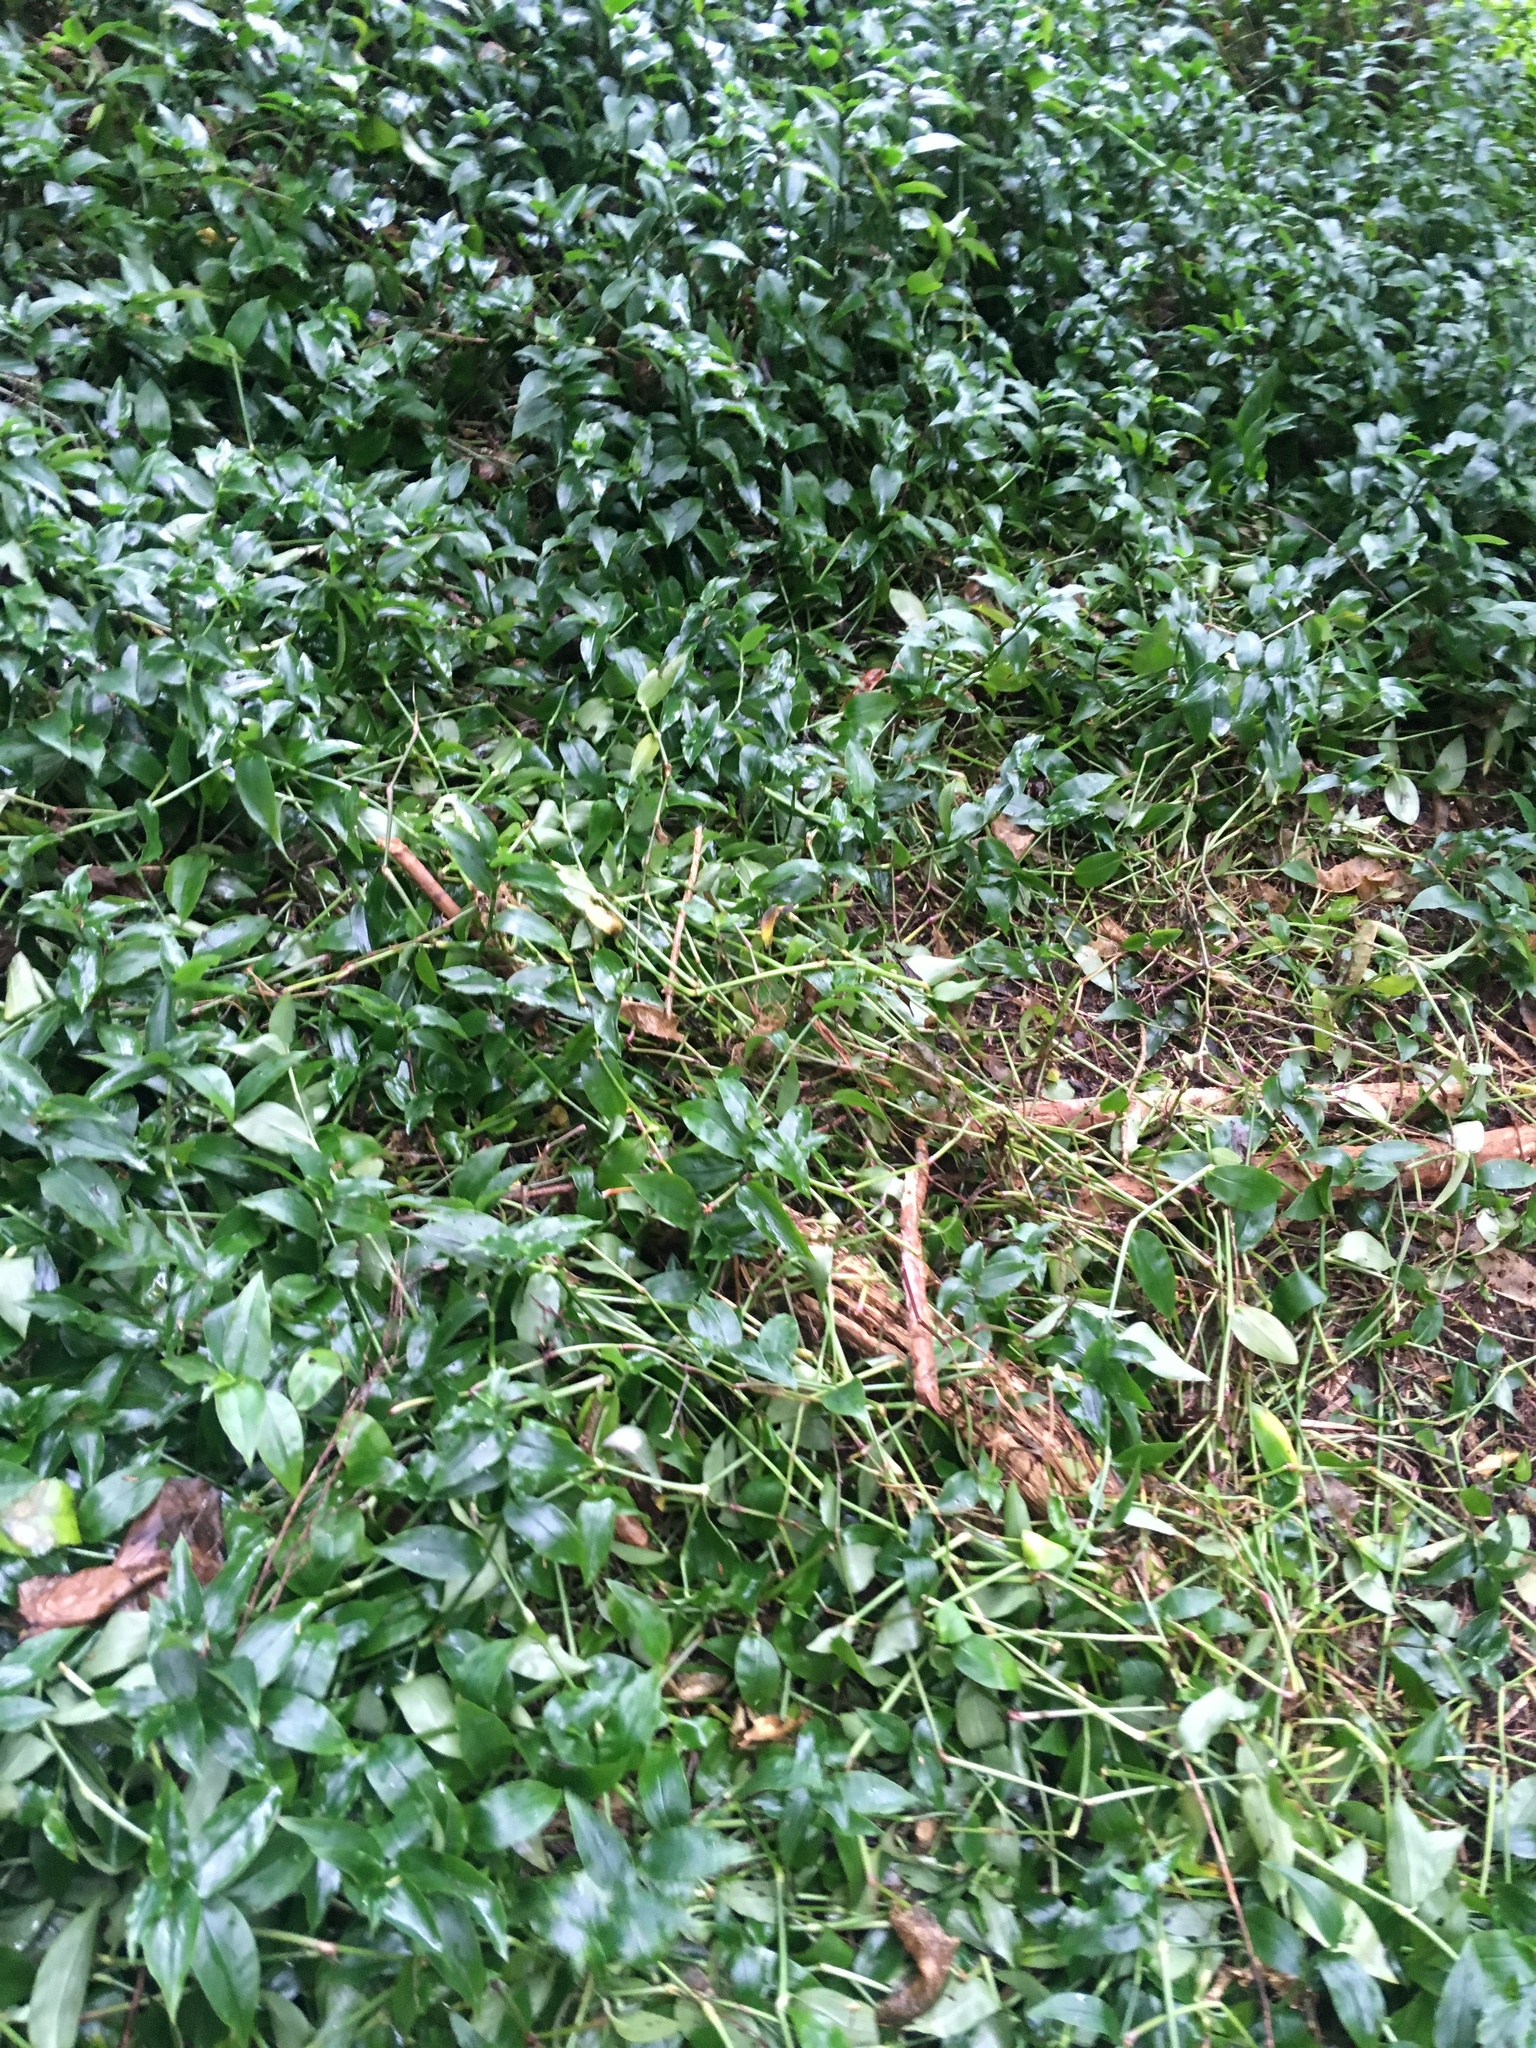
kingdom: Plantae
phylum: Tracheophyta
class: Liliopsida
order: Commelinales
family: Commelinaceae
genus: Tradescantia
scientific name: Tradescantia fluminensis
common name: Wandering-jew
